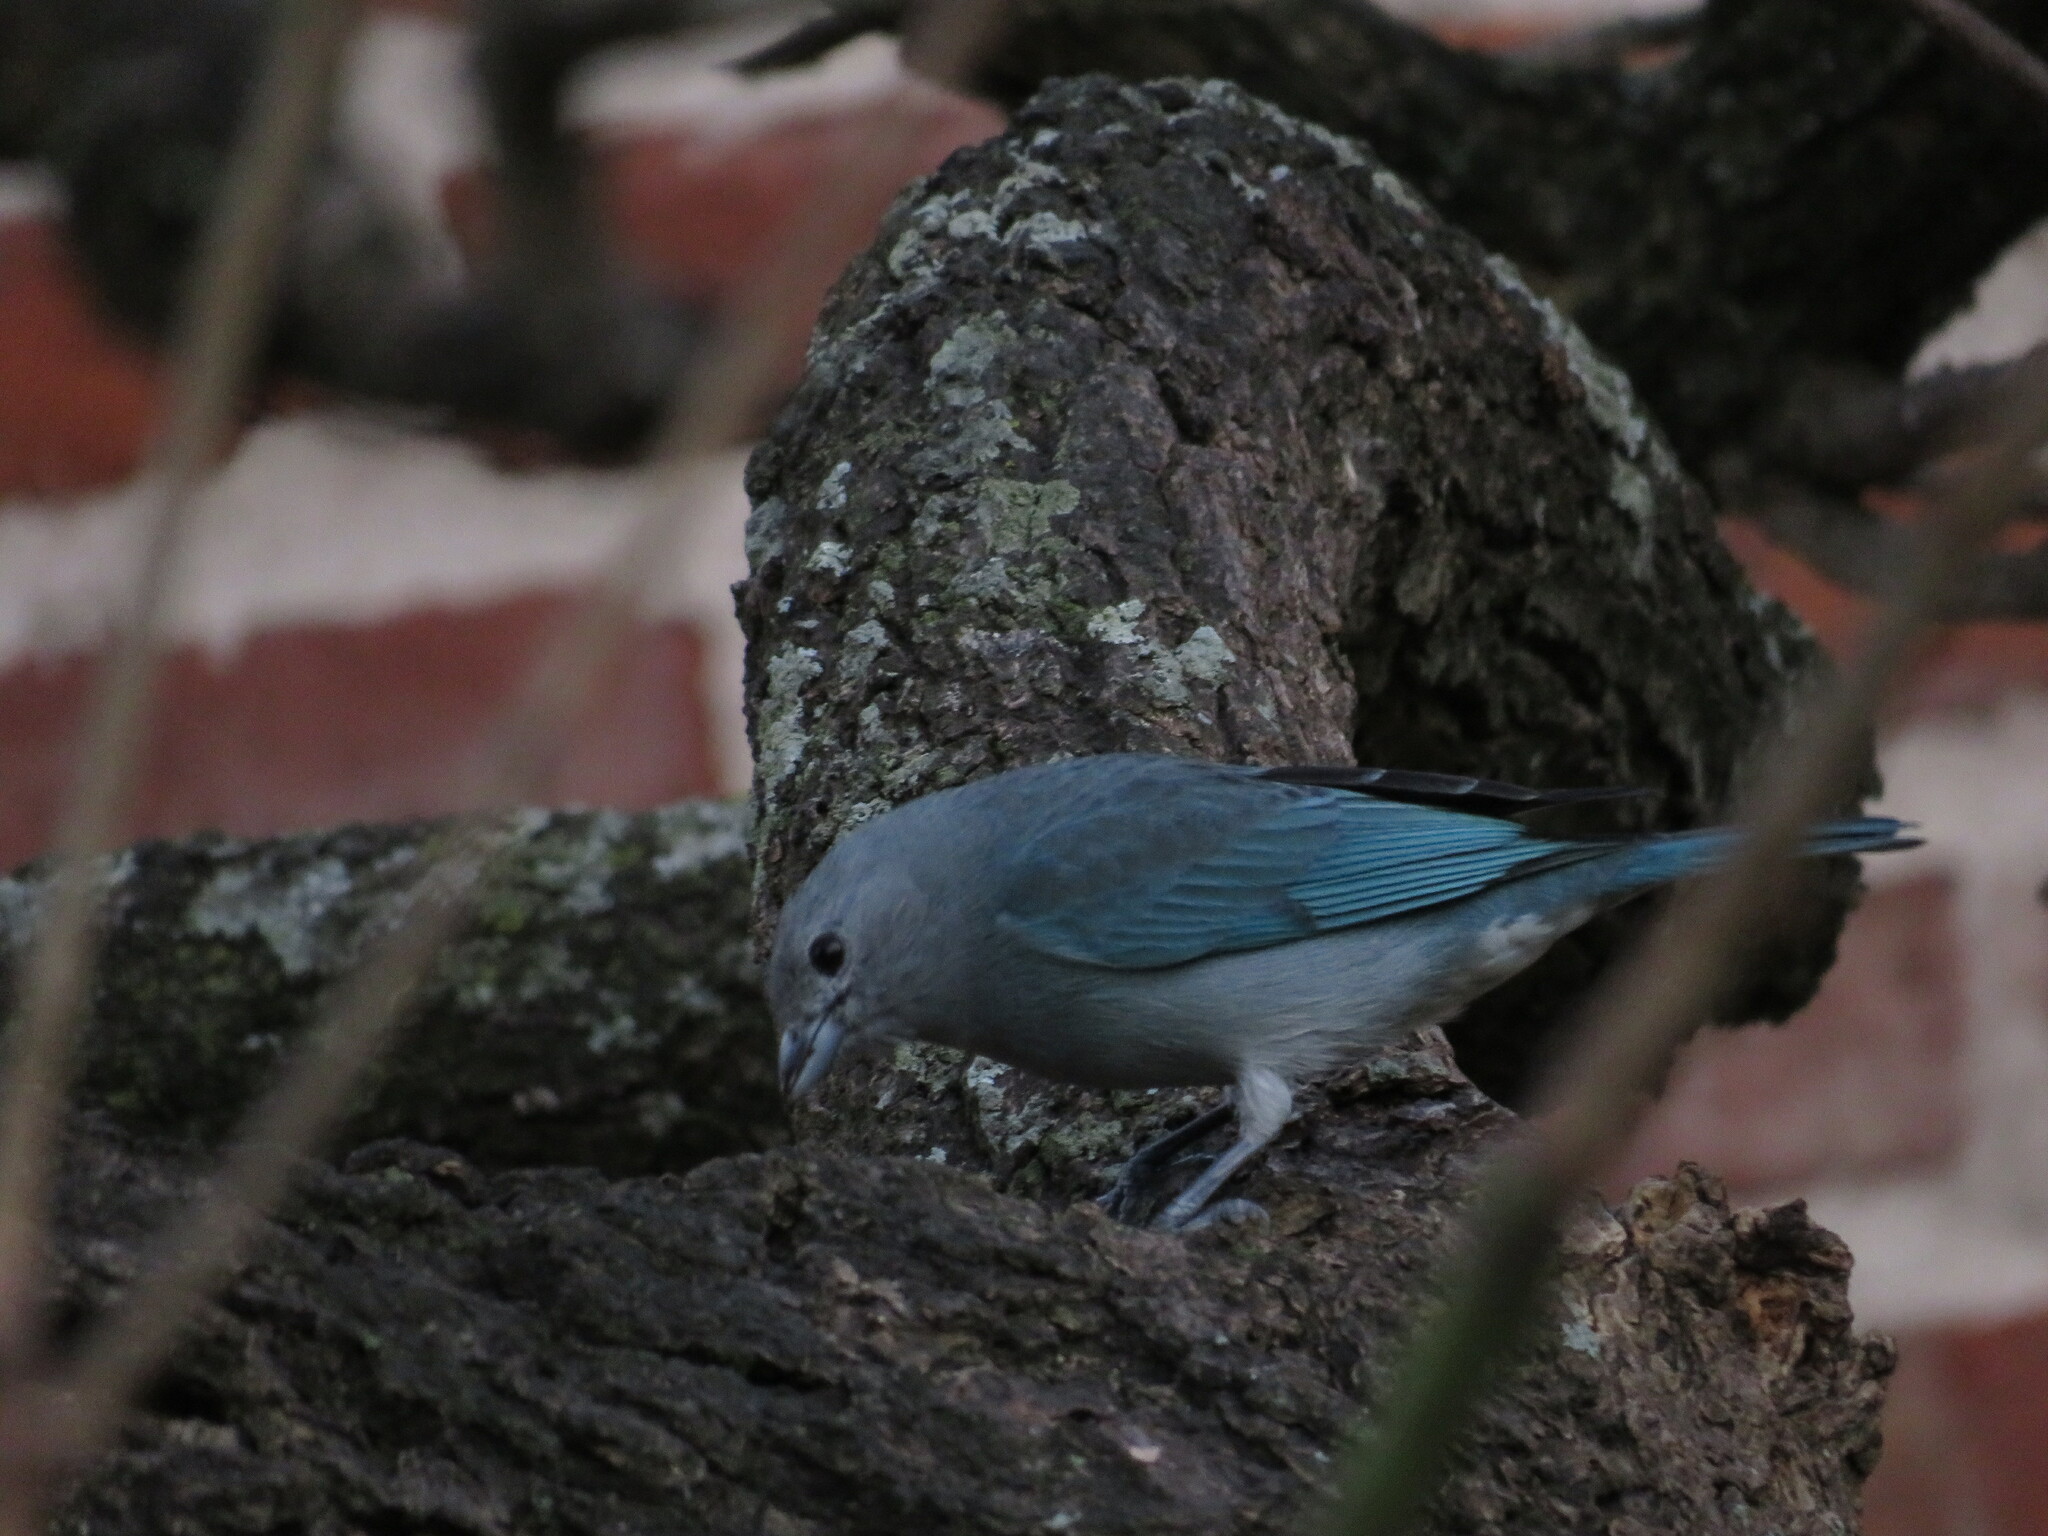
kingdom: Animalia
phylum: Chordata
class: Aves
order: Passeriformes
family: Thraupidae
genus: Thraupis
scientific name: Thraupis sayaca
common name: Sayaca tanager
